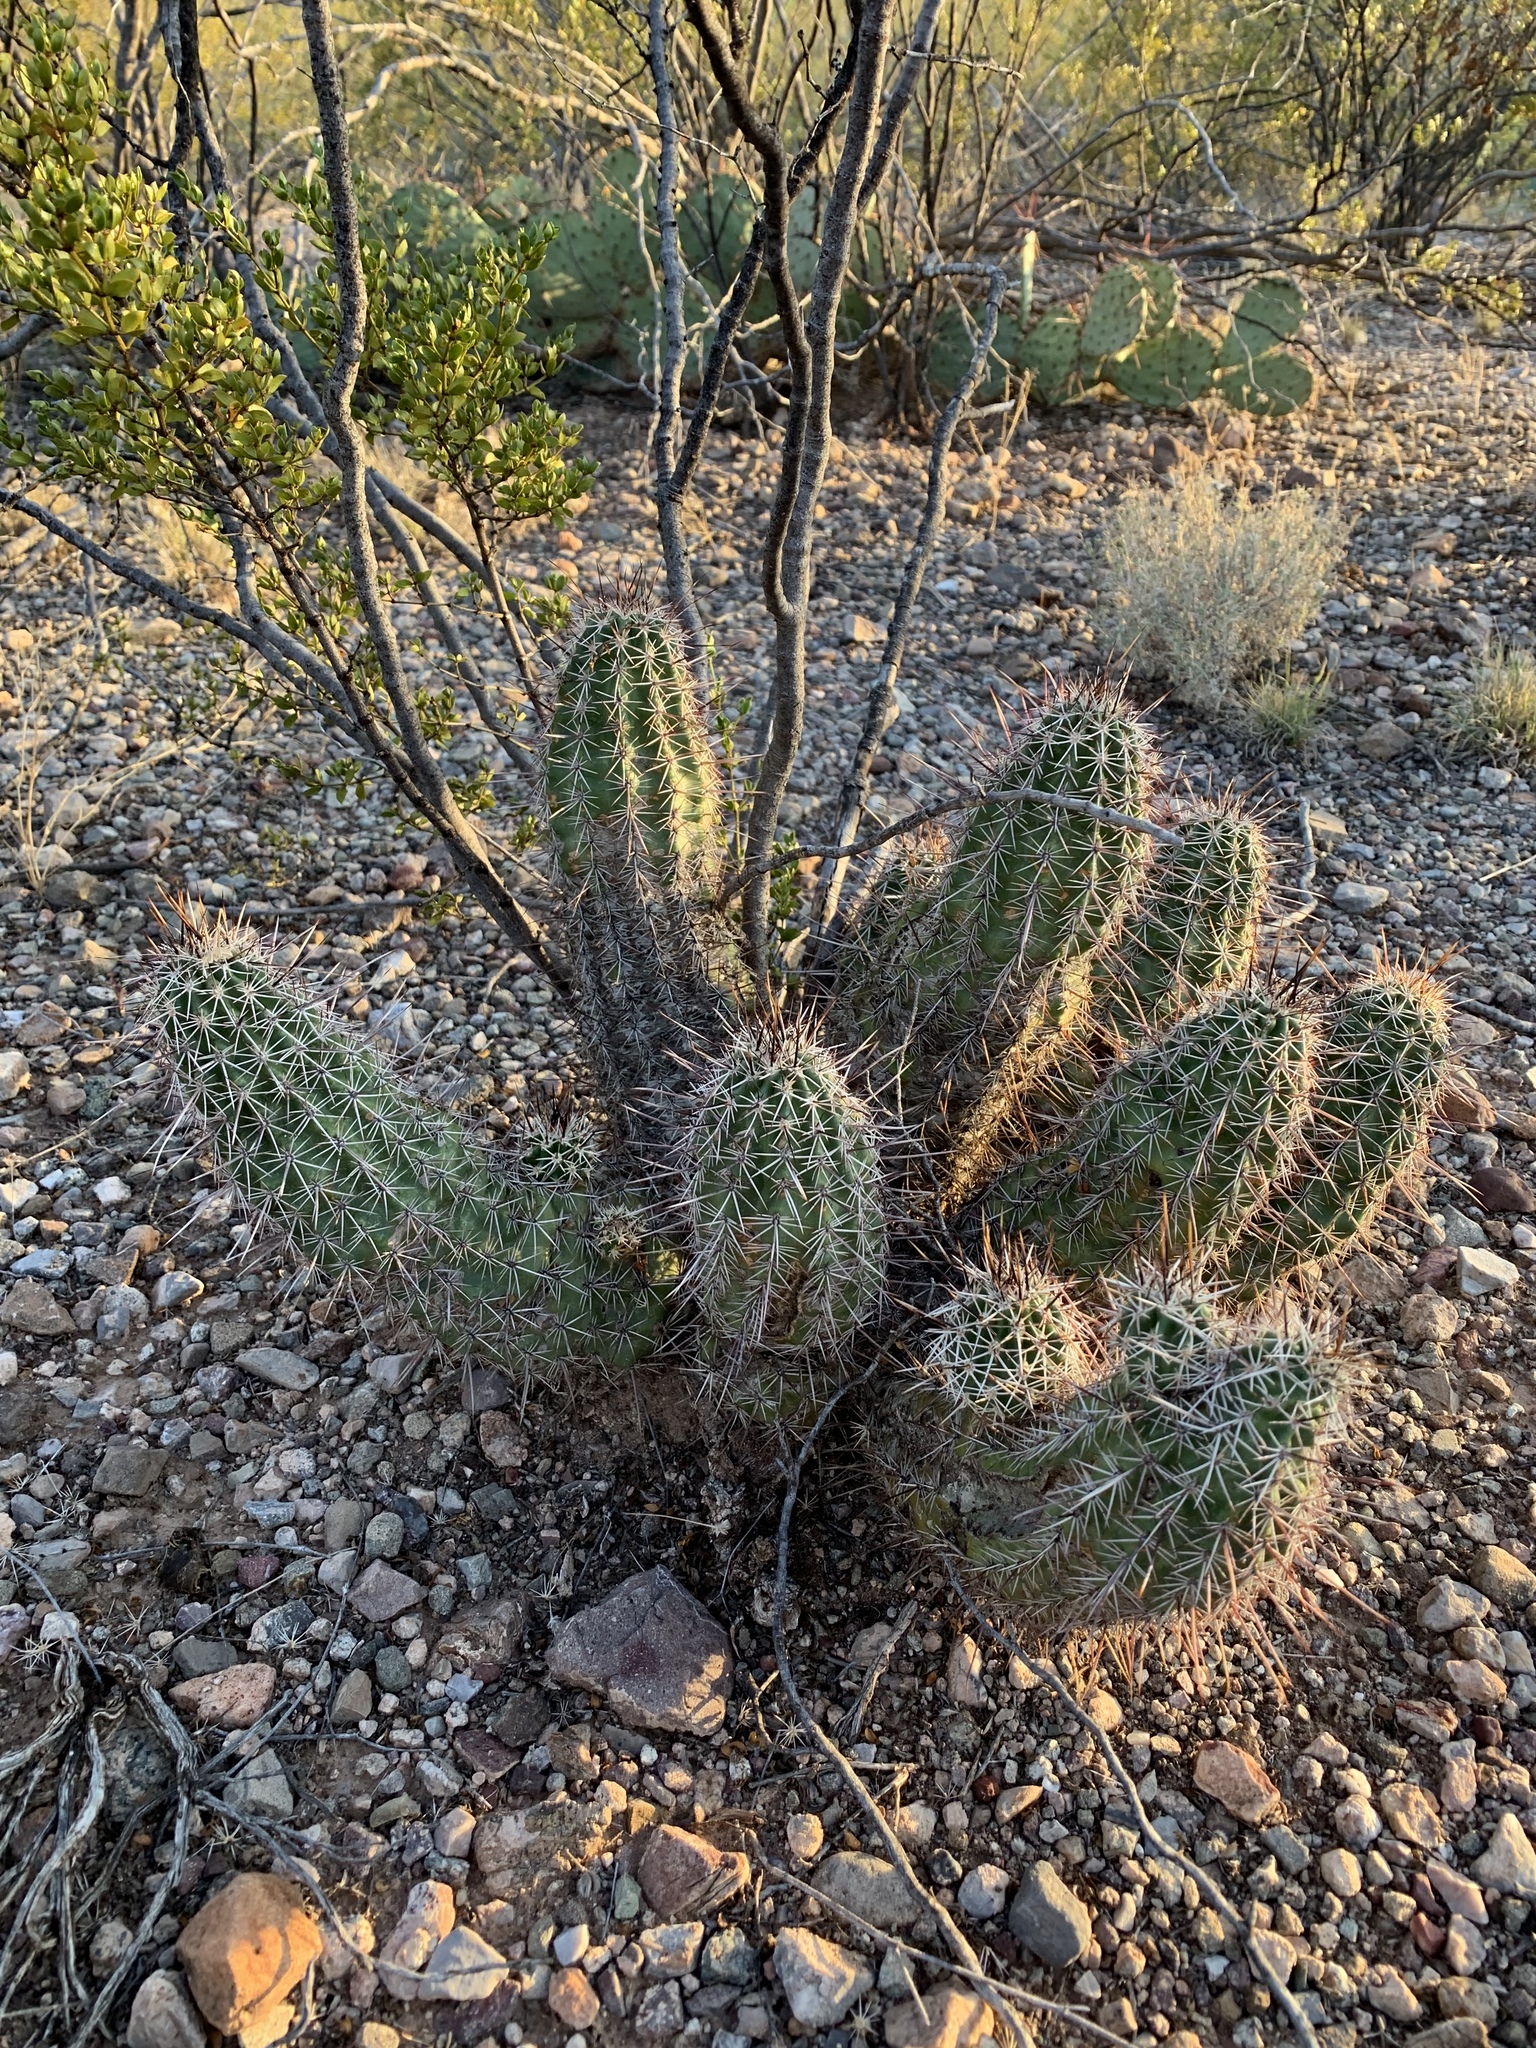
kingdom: Plantae
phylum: Tracheophyta
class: Magnoliopsida
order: Caryophyllales
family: Cactaceae
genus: Echinocereus
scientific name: Echinocereus fasciculatus
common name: Bundle hedgehog
